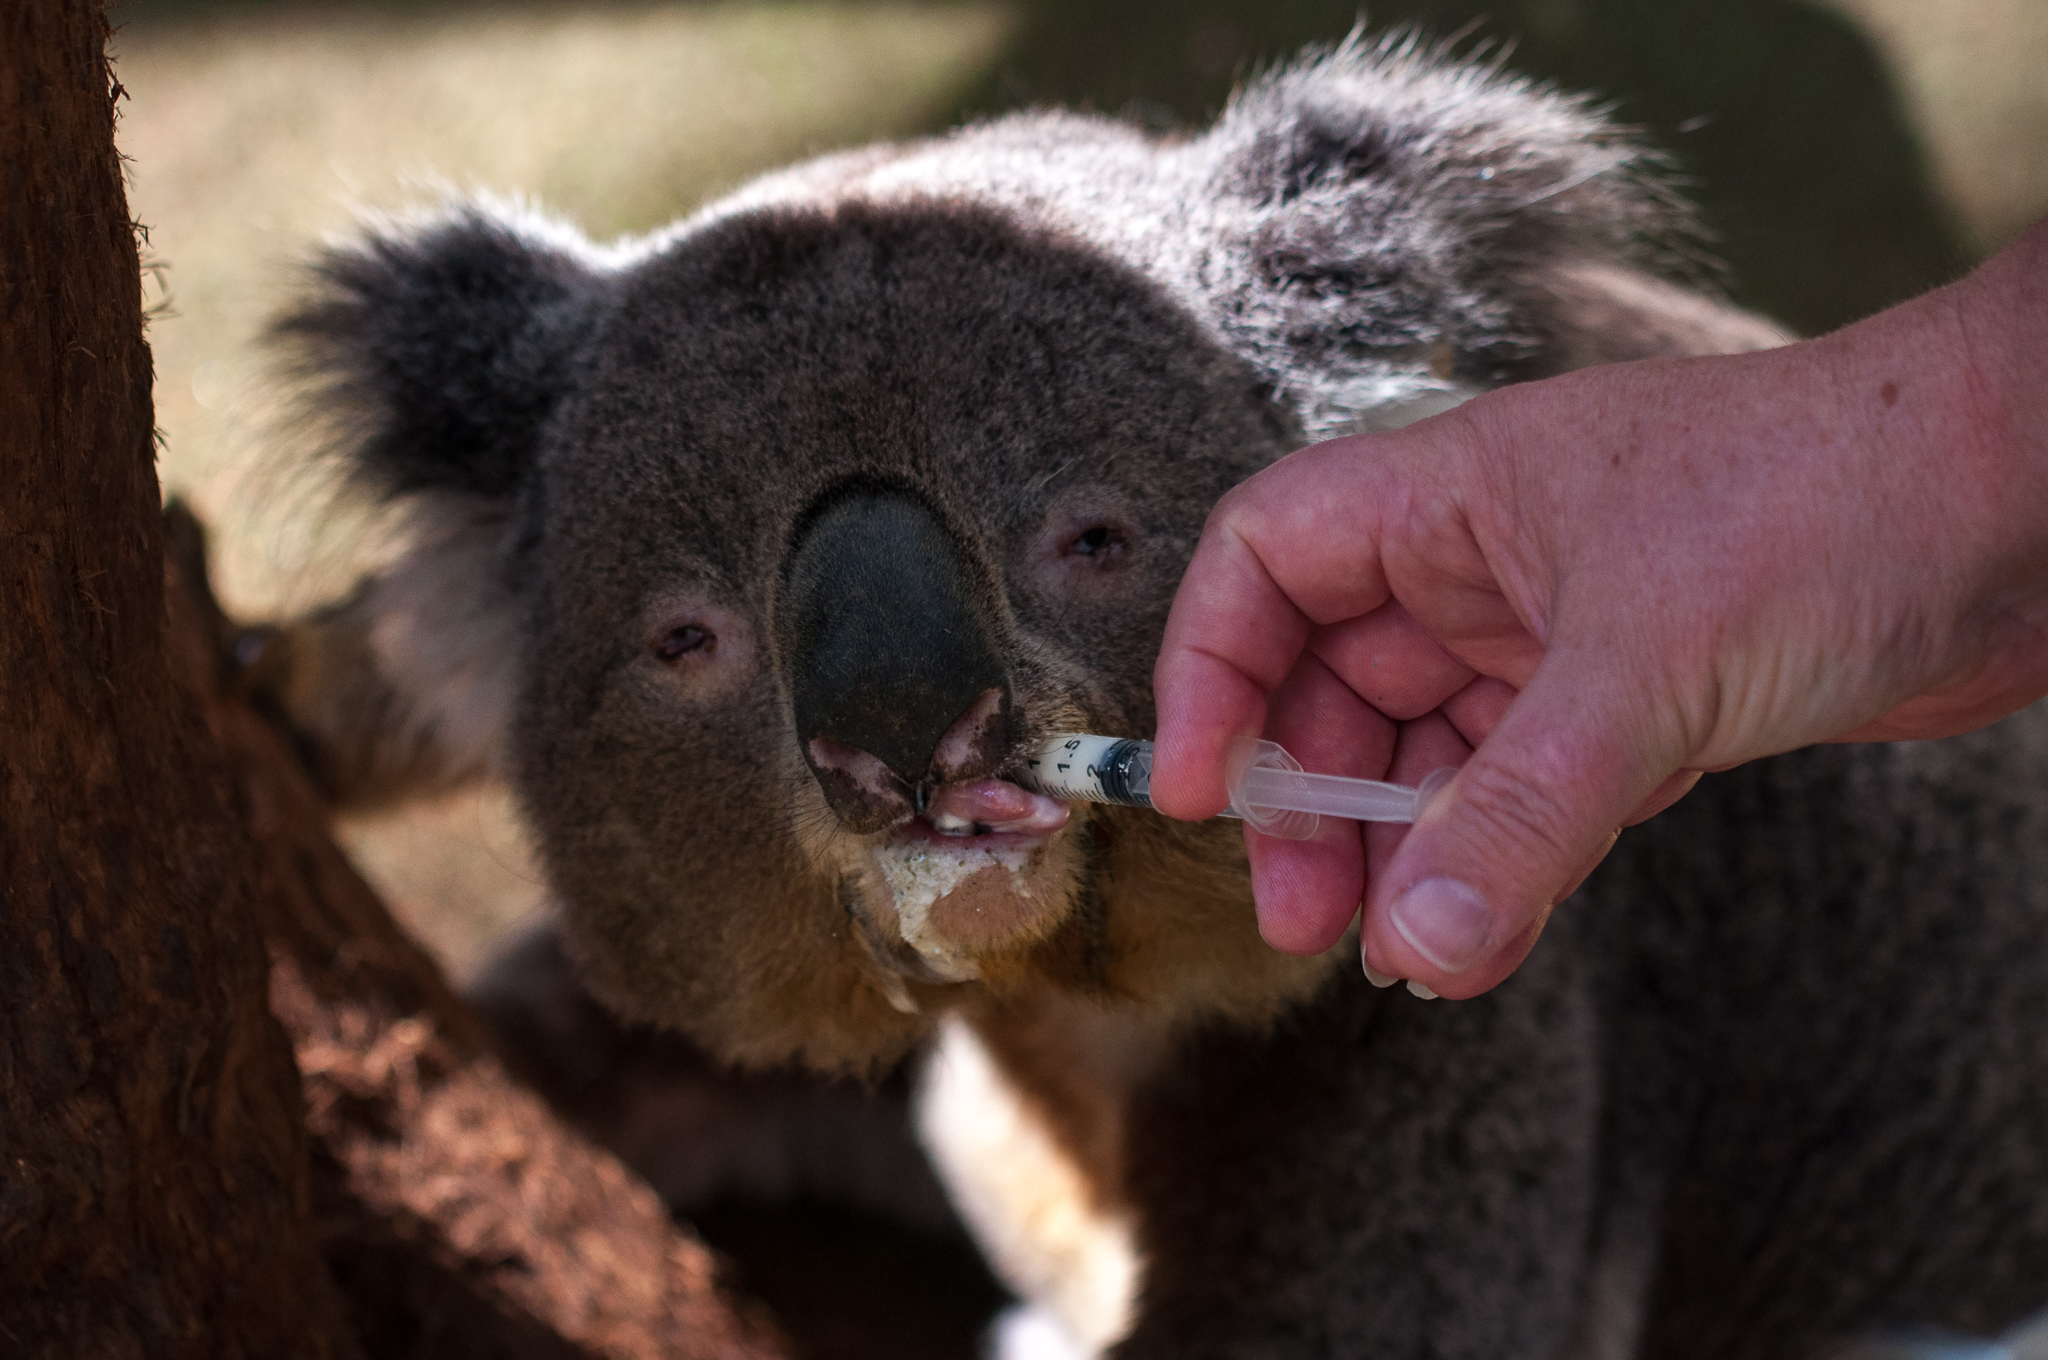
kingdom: Animalia
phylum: Chordata
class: Mammalia
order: Diprotodontia
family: Phascolarctidae
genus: Phascolarctos
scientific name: Phascolarctos cinereus
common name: Koala
